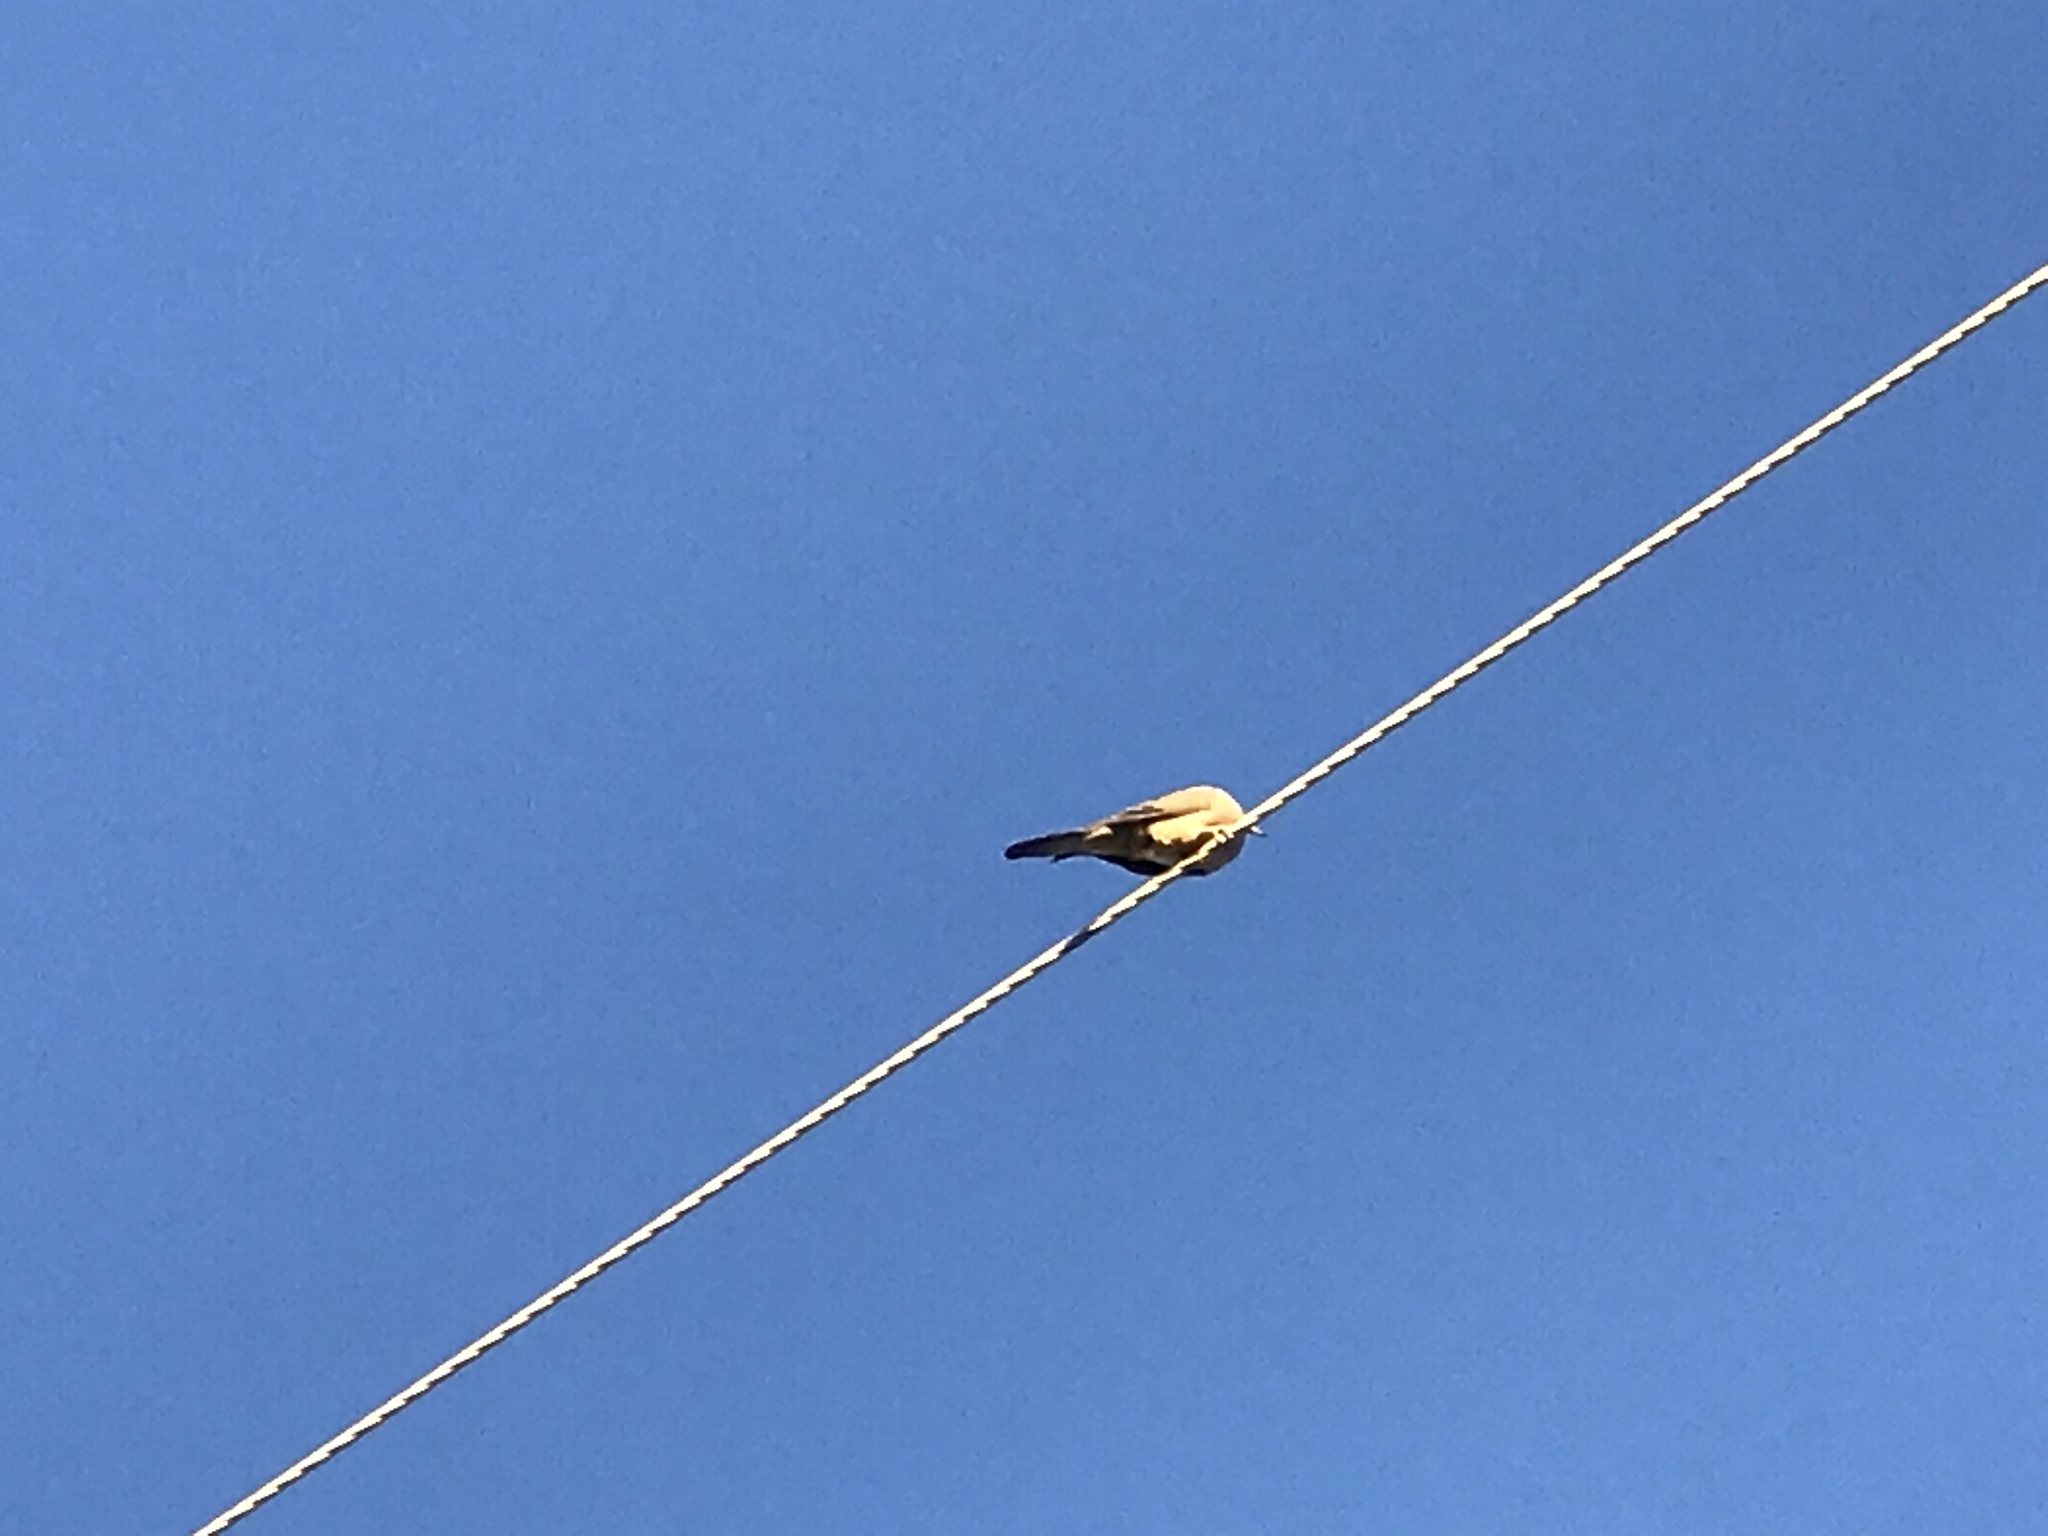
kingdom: Animalia
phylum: Chordata
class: Aves
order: Columbiformes
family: Columbidae
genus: Zenaida
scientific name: Zenaida macroura
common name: Mourning dove
